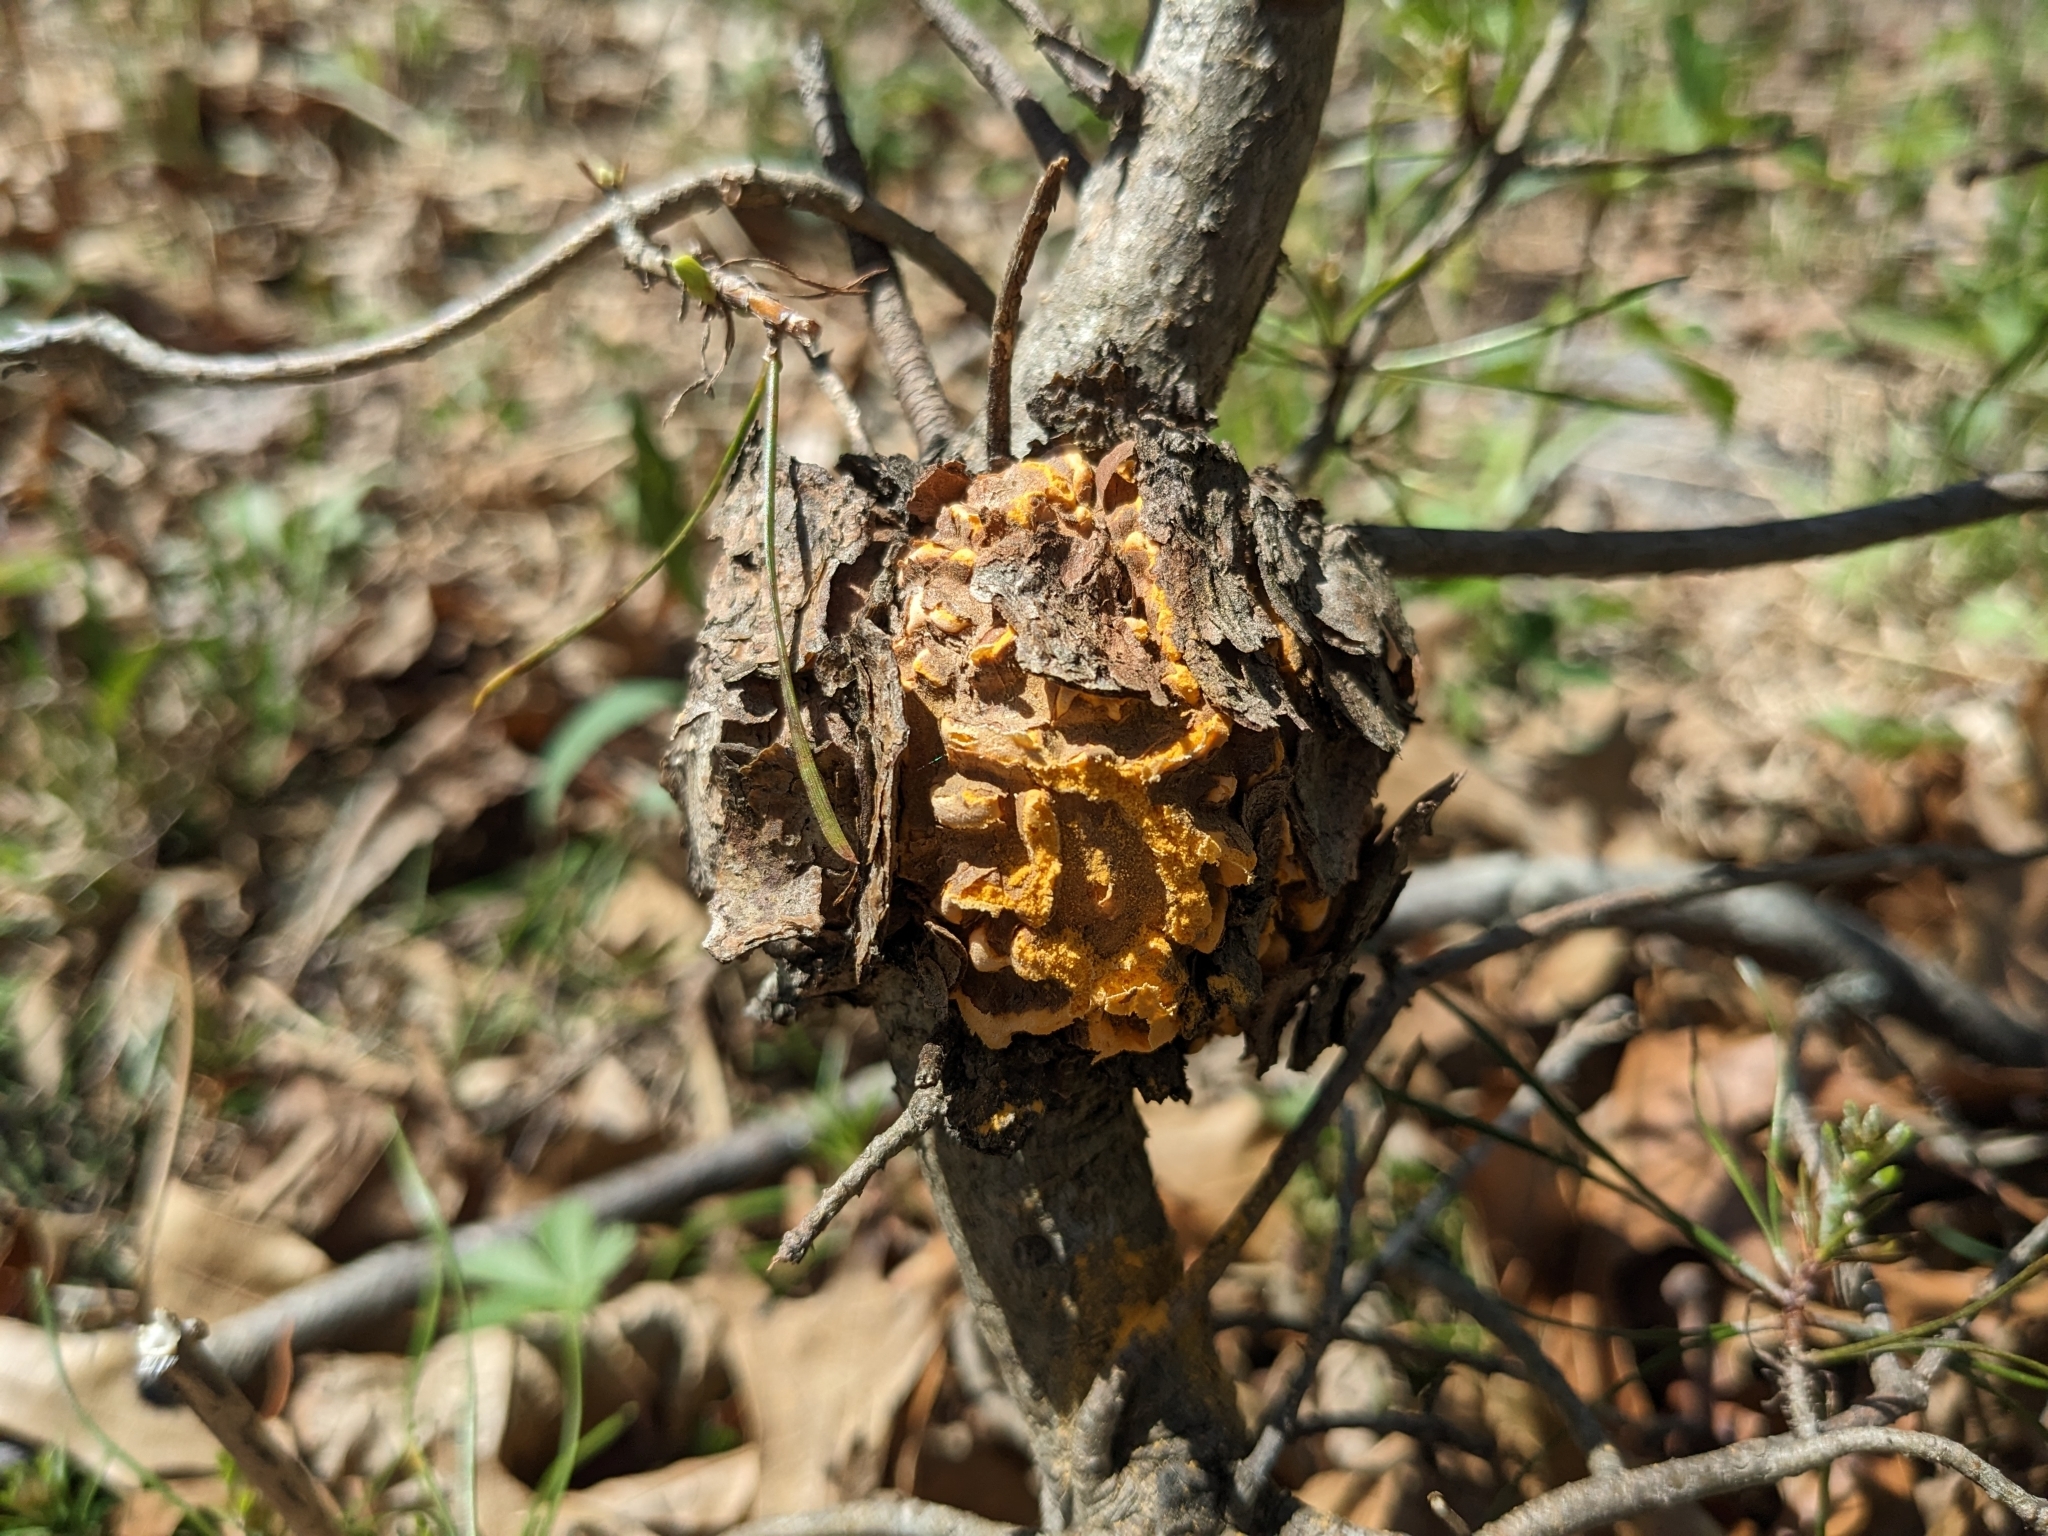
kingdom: Fungi
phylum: Basidiomycota
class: Pucciniomycetes
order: Pucciniales
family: Cronartiaceae
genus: Cronartium
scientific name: Cronartium quercuum
